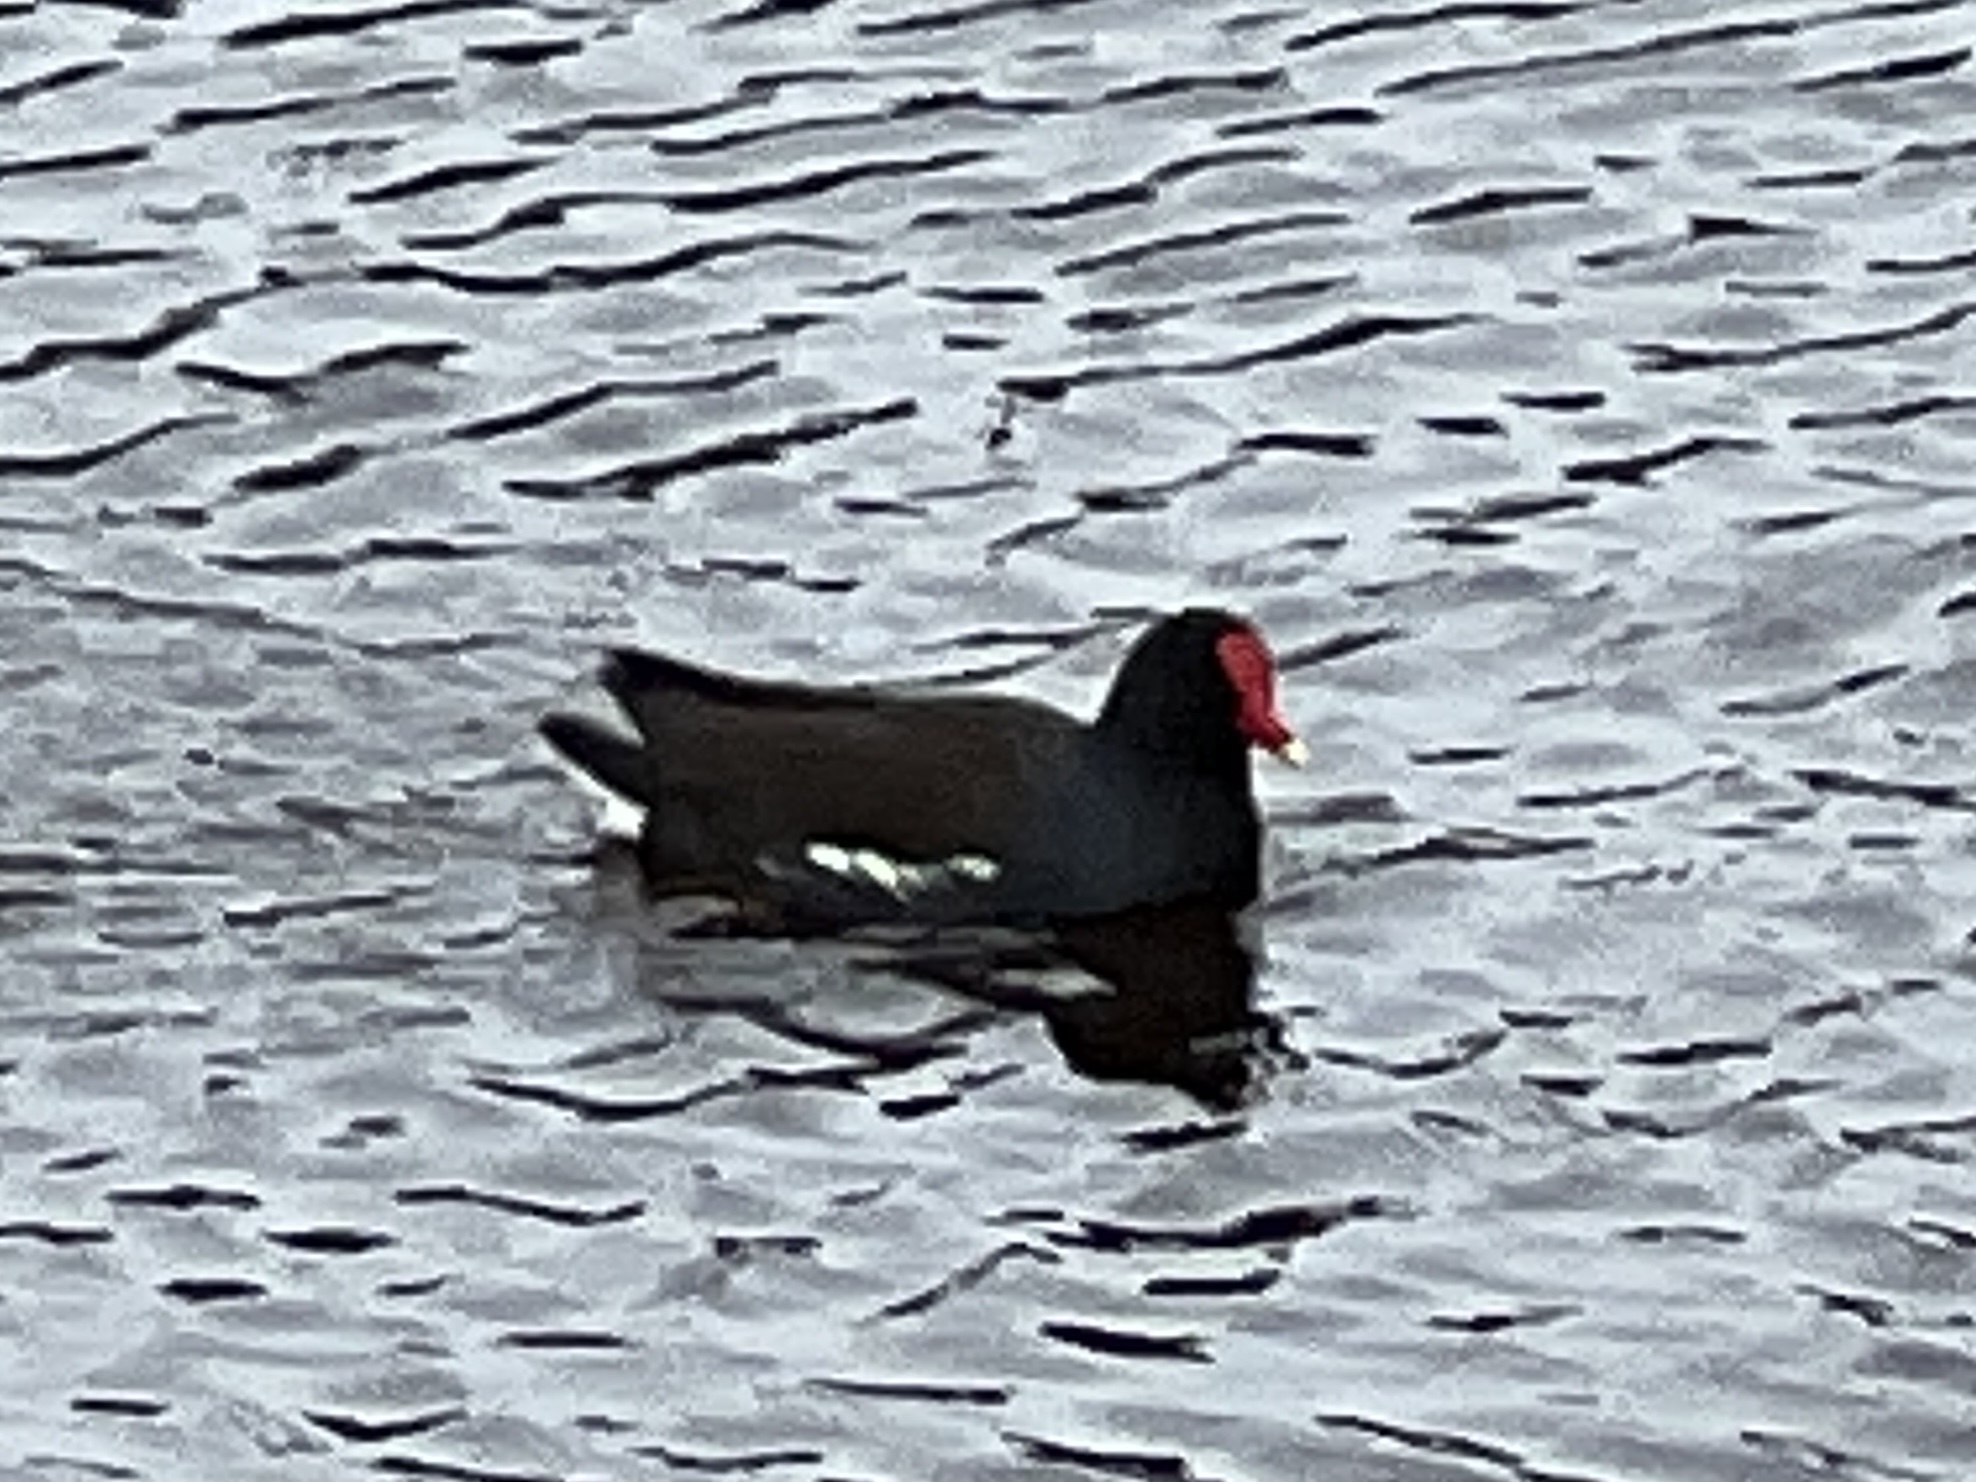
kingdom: Animalia
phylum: Chordata
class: Aves
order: Gruiformes
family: Rallidae
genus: Gallinula
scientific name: Gallinula chloropus
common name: Common moorhen
